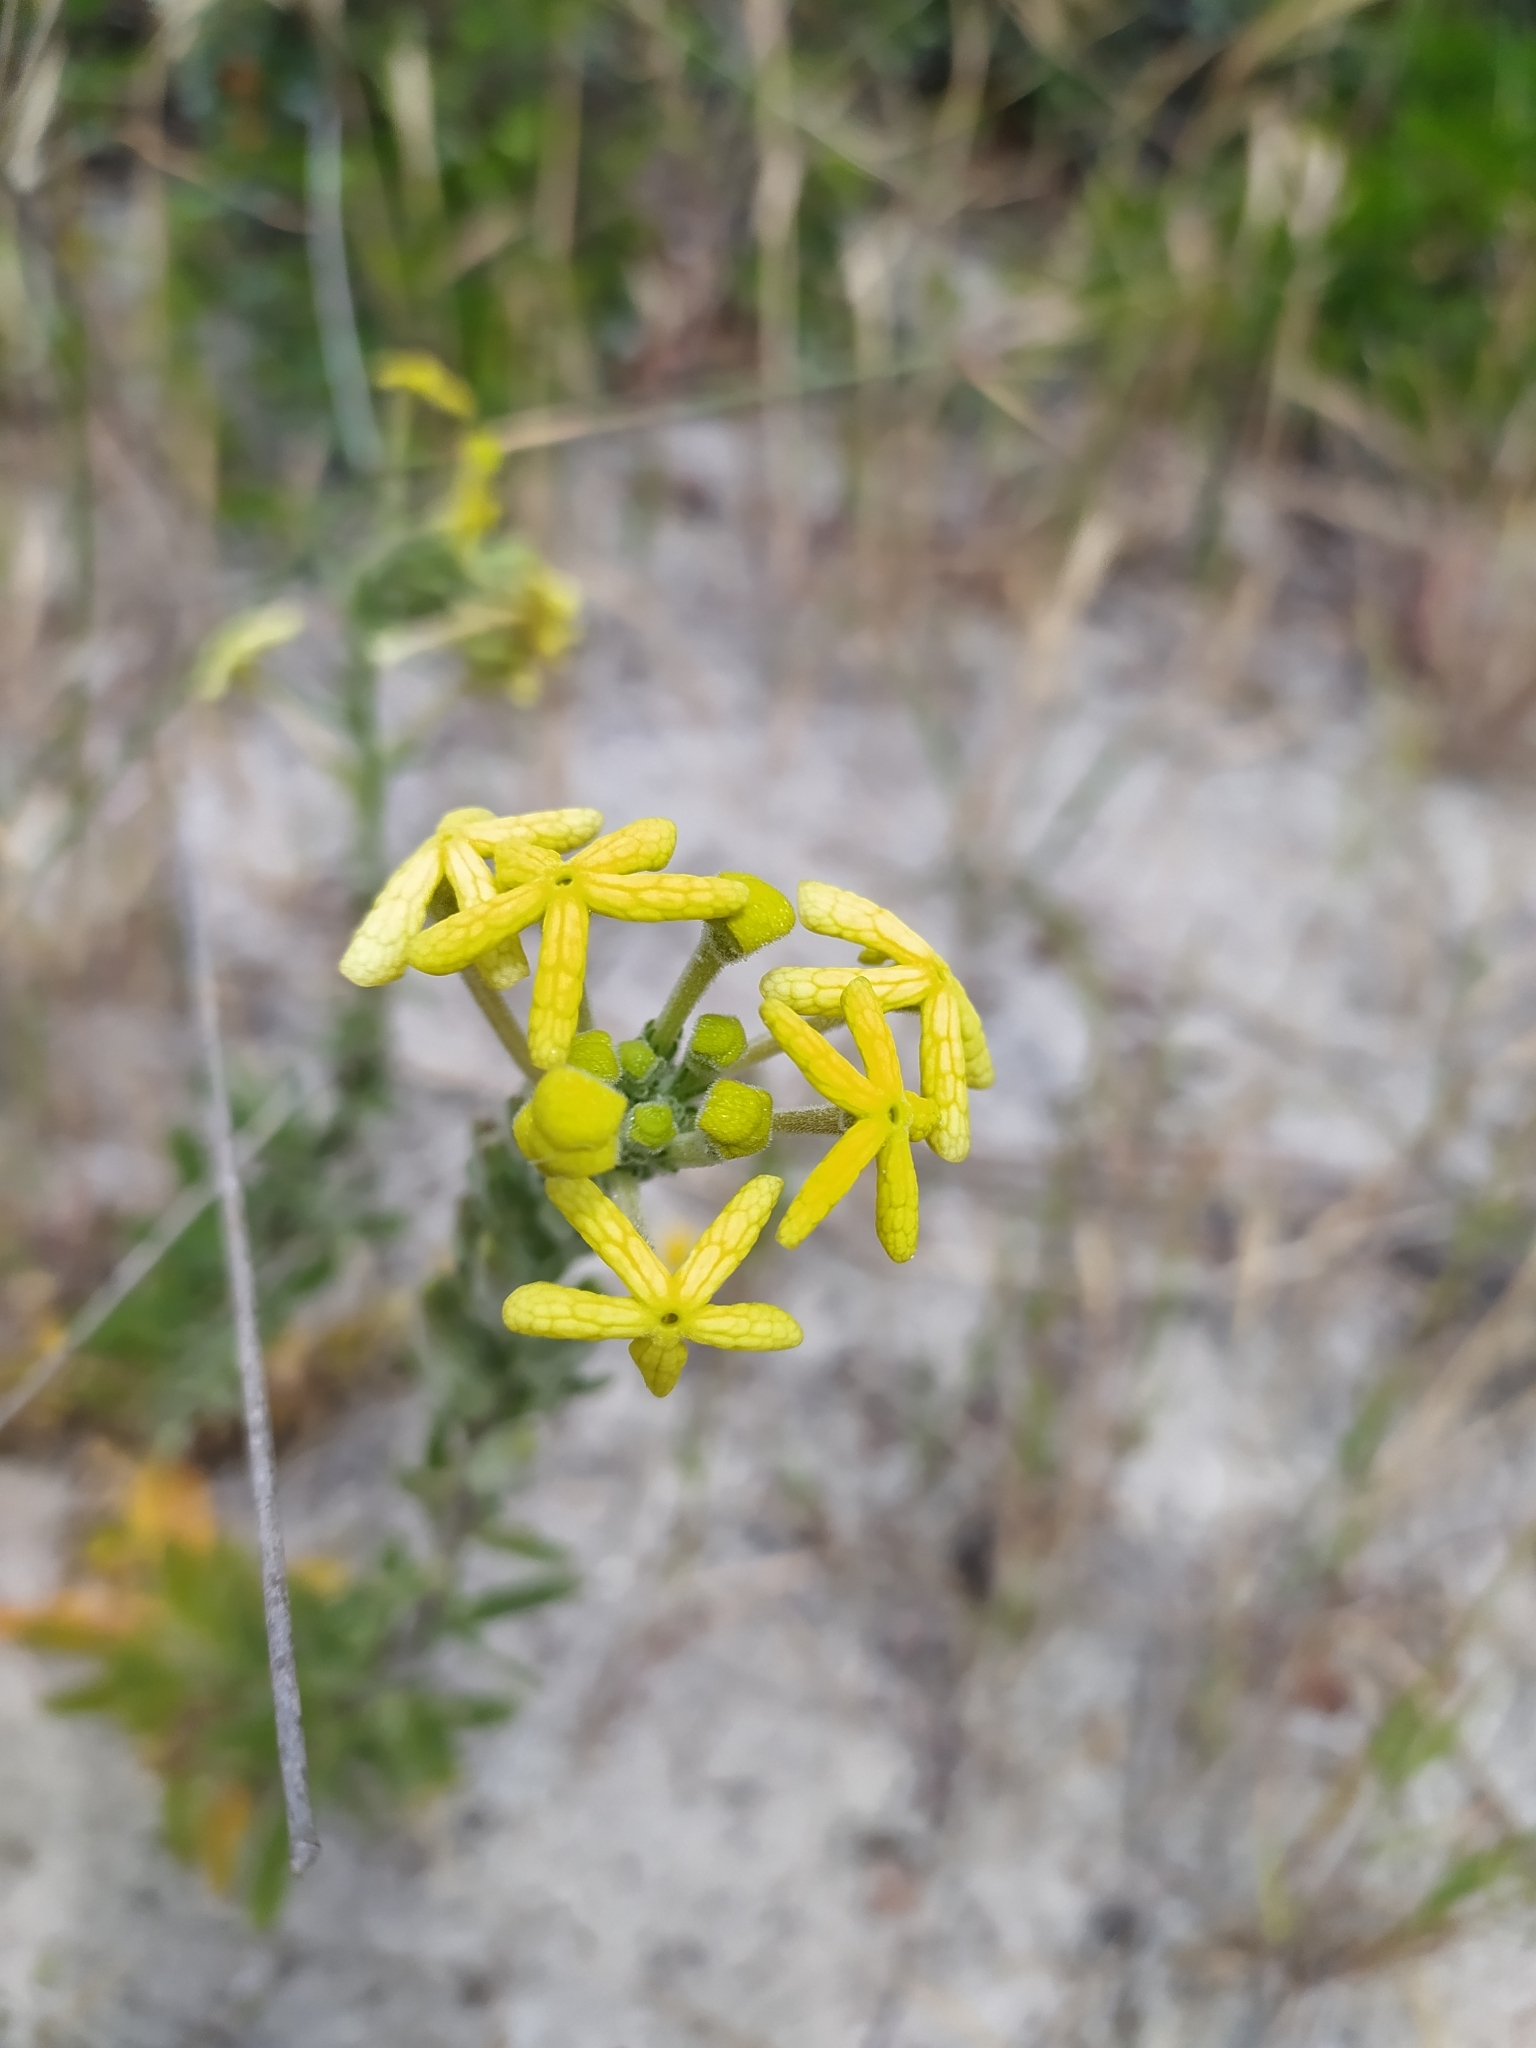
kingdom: Plantae
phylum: Tracheophyta
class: Magnoliopsida
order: Lamiales
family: Scrophulariaceae
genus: Lyperia
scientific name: Lyperia lychnidea
